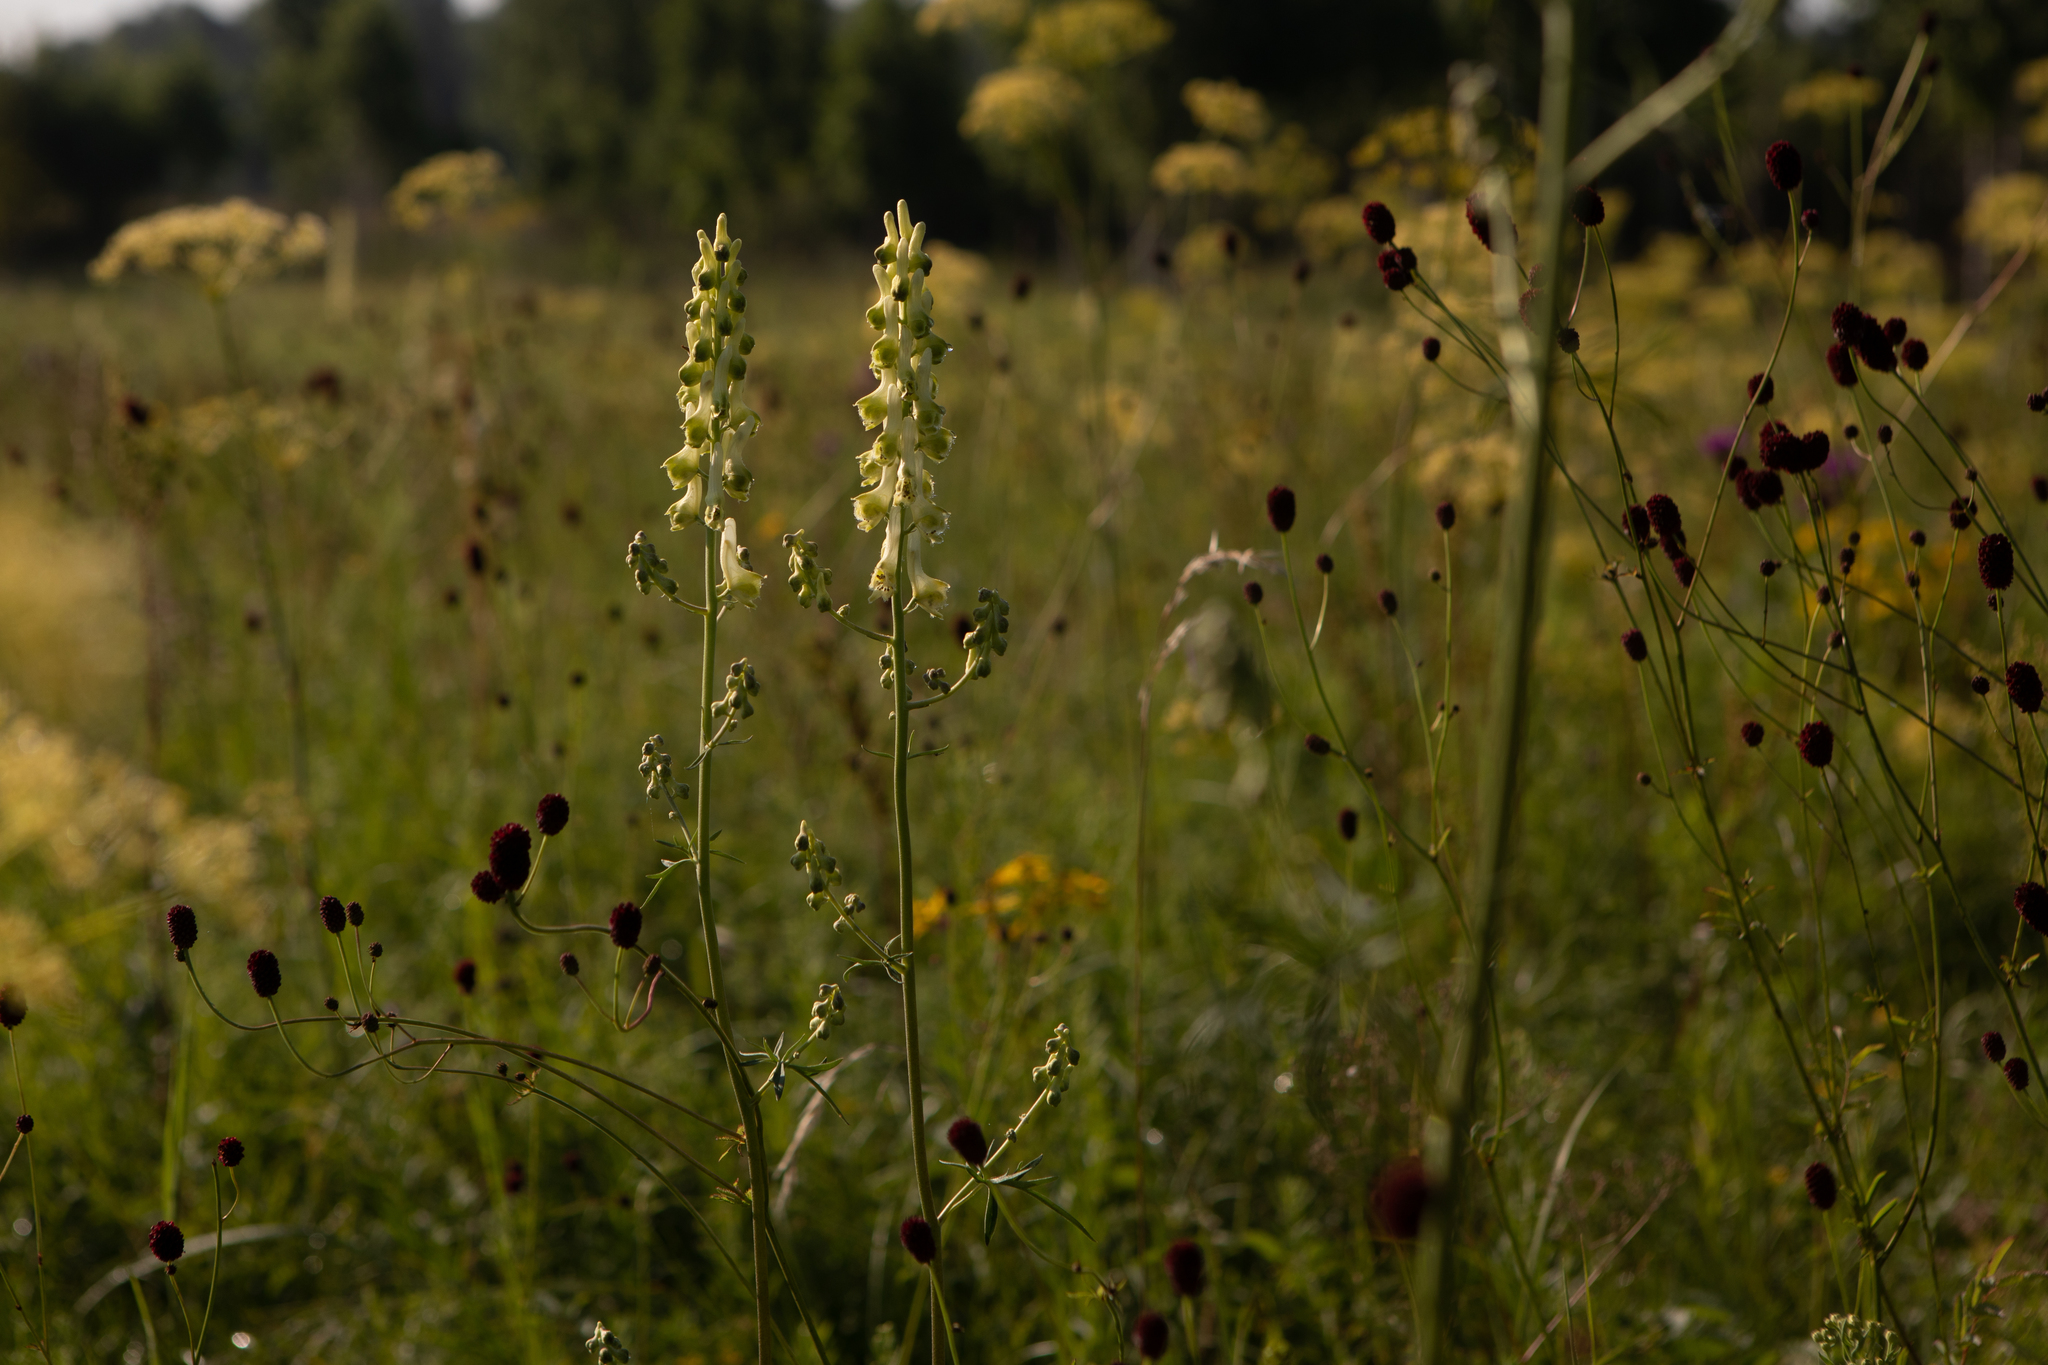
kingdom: Plantae
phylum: Tracheophyta
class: Magnoliopsida
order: Ranunculales
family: Ranunculaceae
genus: Aconitum
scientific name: Aconitum barbatum
